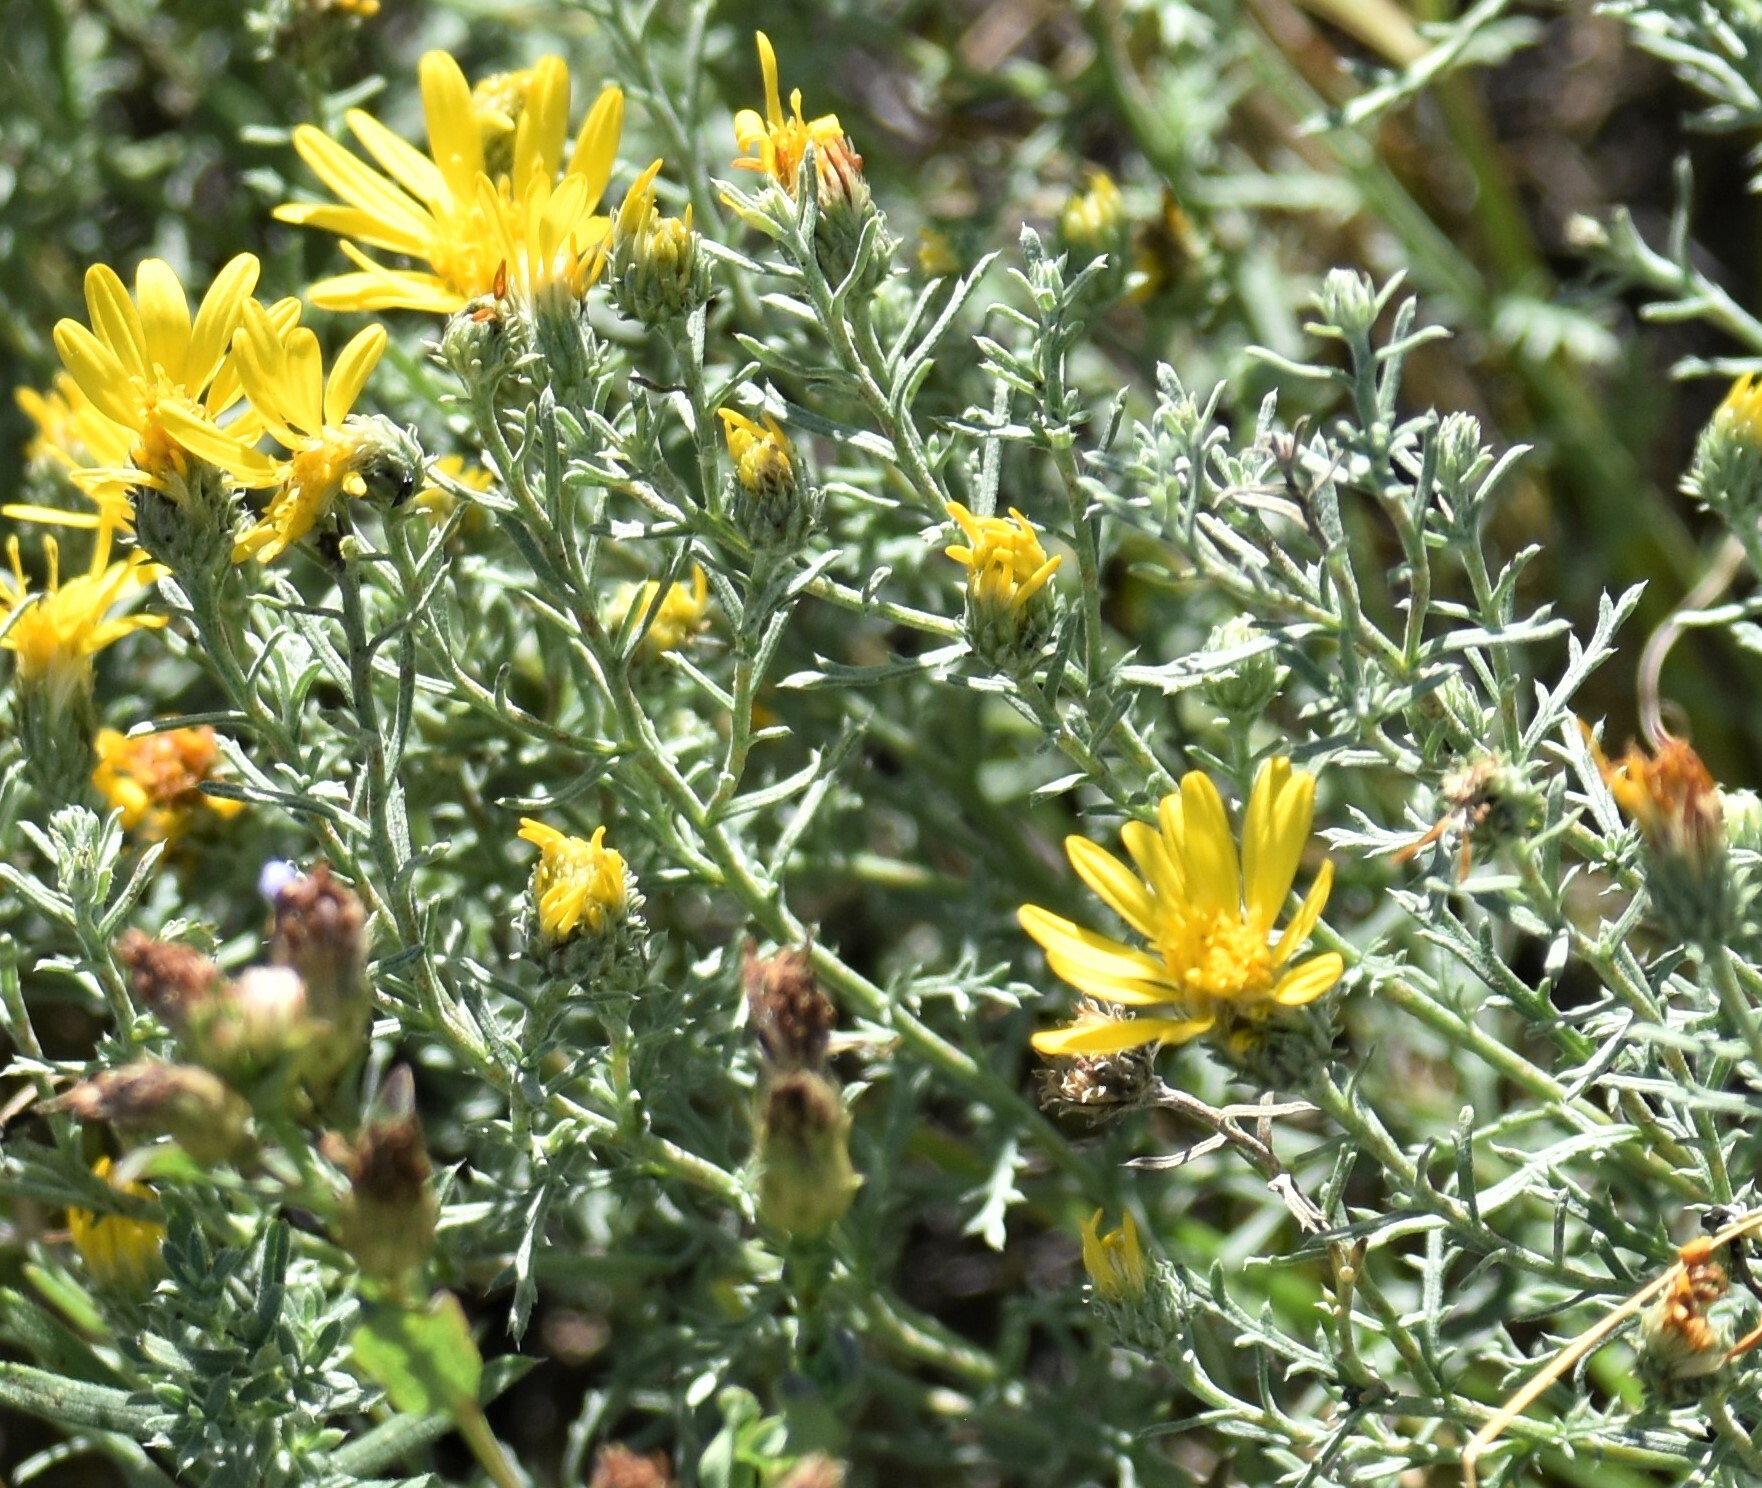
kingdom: Plantae
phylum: Tracheophyta
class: Magnoliopsida
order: Asterales
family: Asteraceae
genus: Xanthisma
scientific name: Xanthisma spinulosum
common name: Spiny goldenweed
